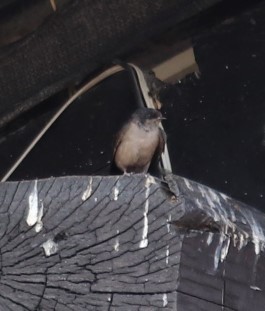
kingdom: Animalia
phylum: Chordata
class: Aves
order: Passeriformes
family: Hirundinidae
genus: Notiochelidon
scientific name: Notiochelidon murina
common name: Brown-bellied swallow
